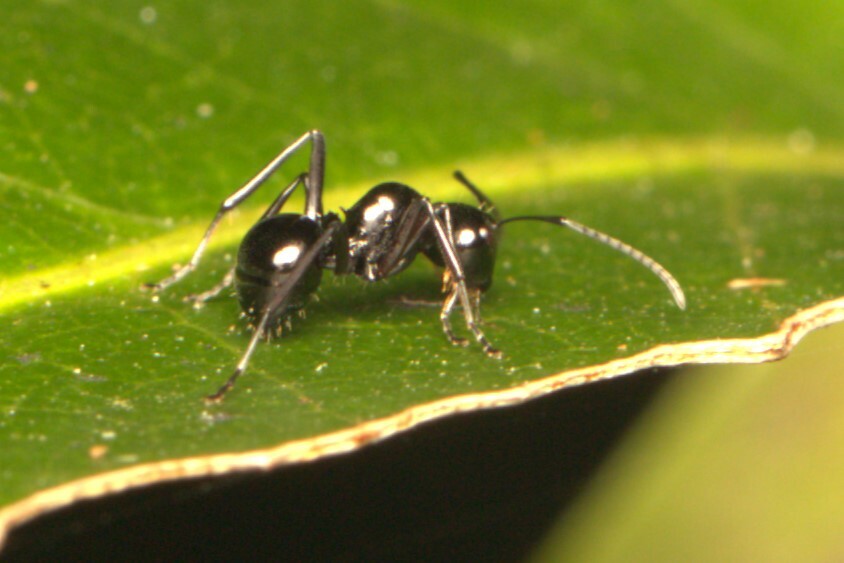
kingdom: Animalia
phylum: Arthropoda
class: Insecta
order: Hymenoptera
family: Formicidae
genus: Polyrhachis
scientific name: Polyrhachis australis
